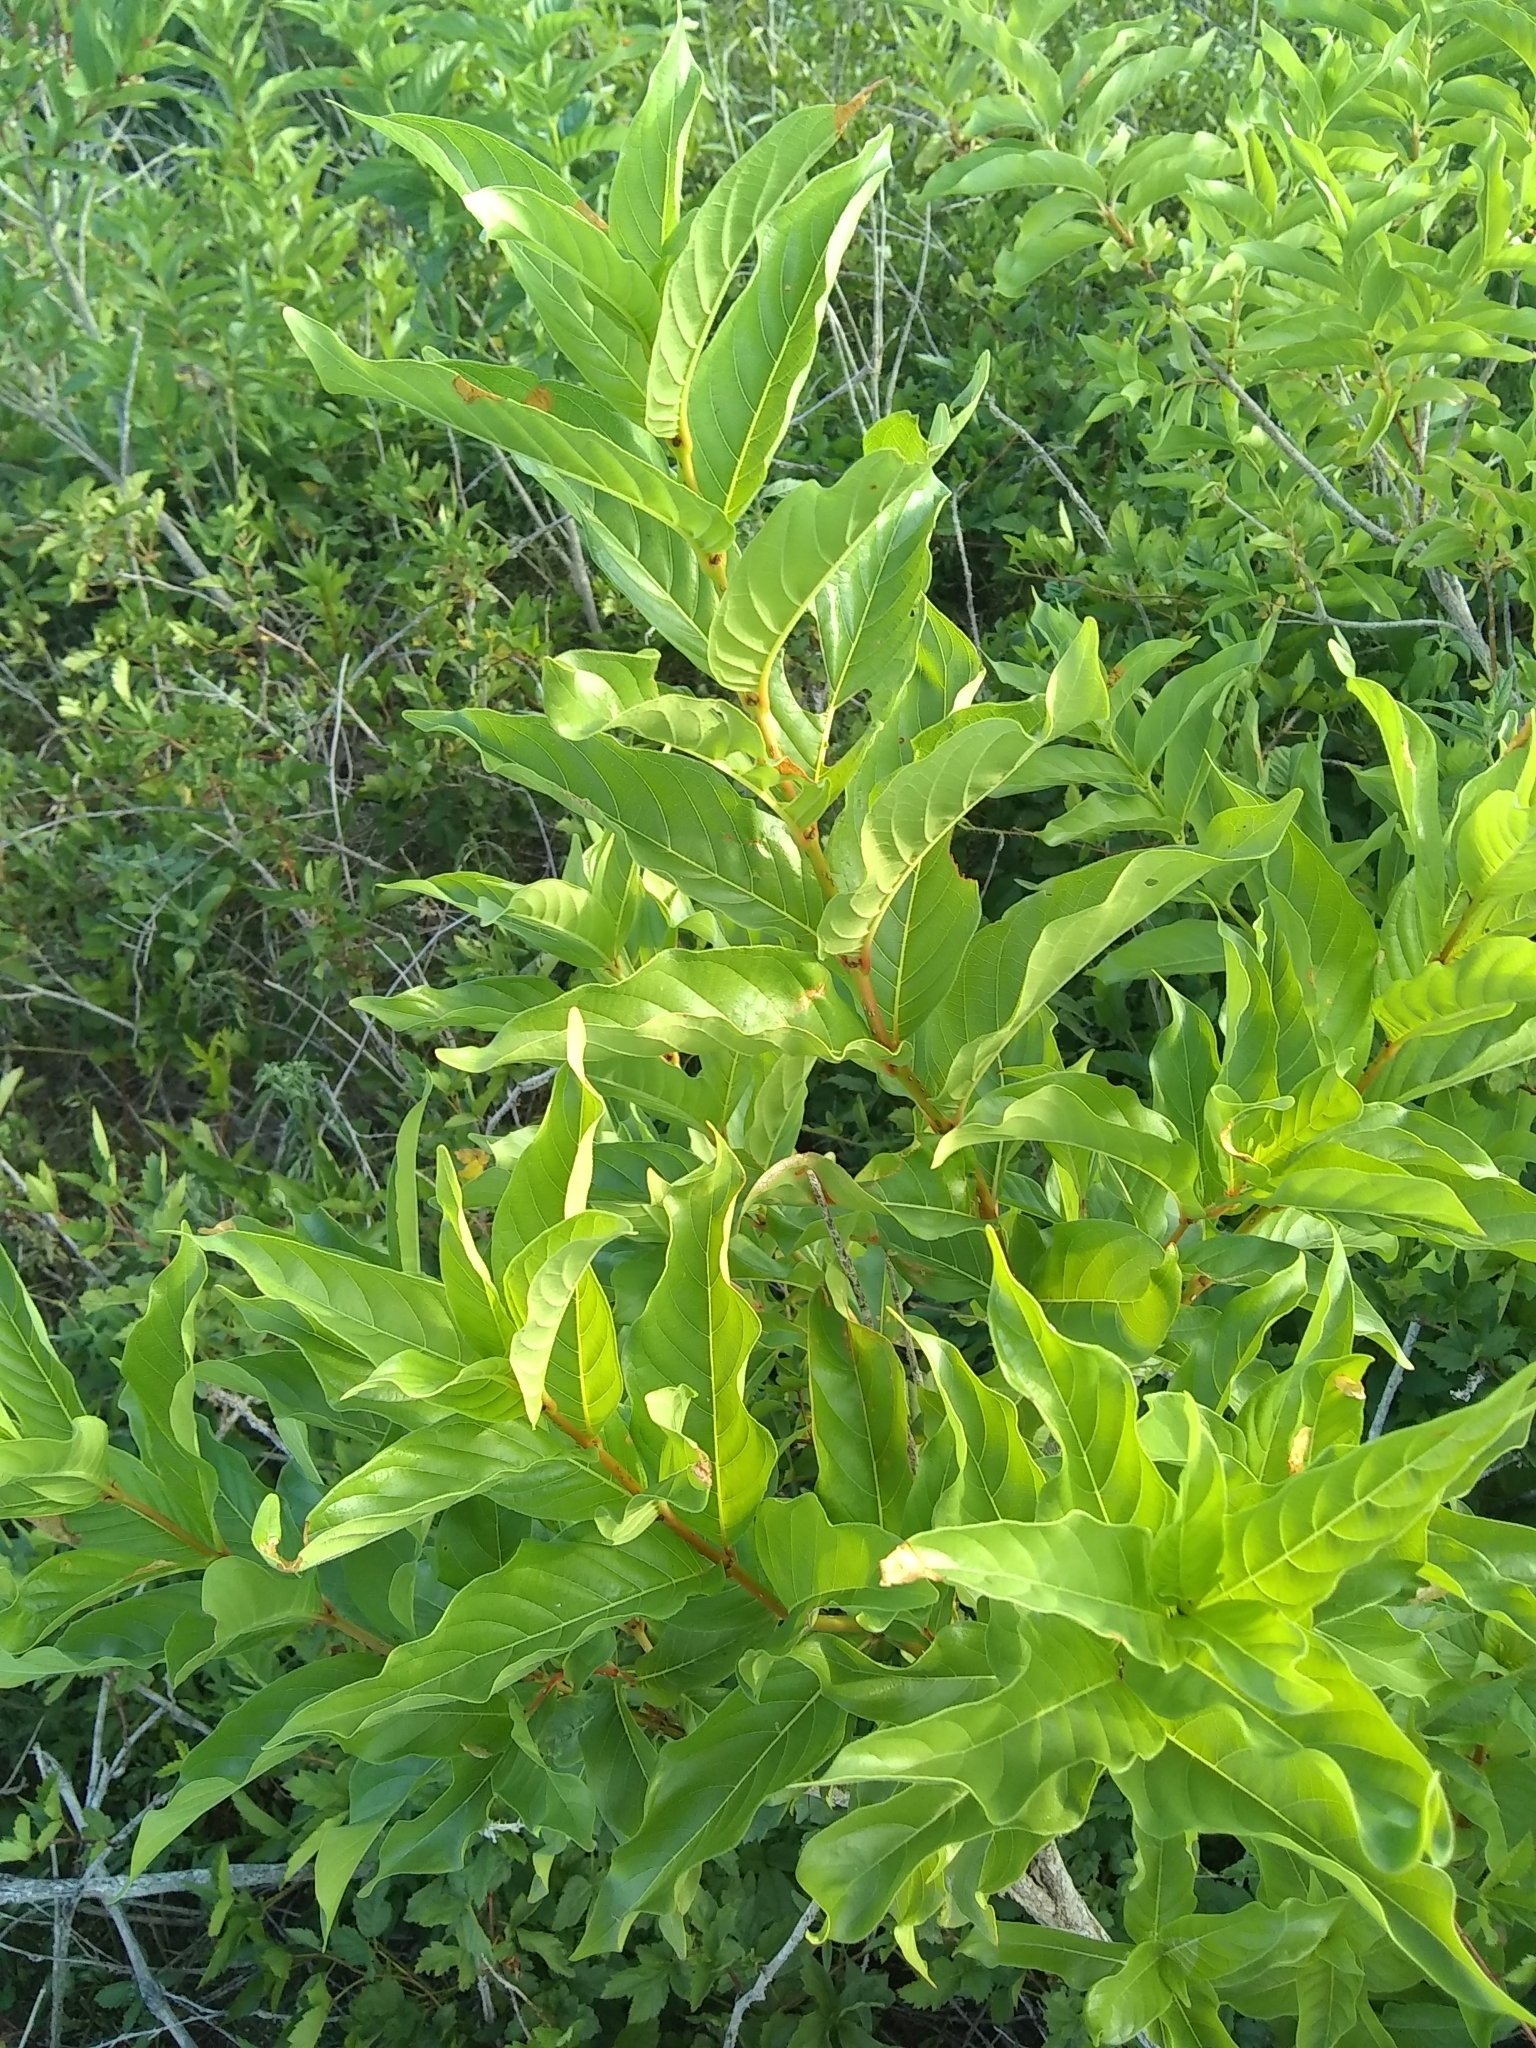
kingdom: Plantae
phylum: Tracheophyta
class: Magnoliopsida
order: Gentianales
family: Rubiaceae
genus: Cephalanthus
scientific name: Cephalanthus occidentalis
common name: Button-willow
